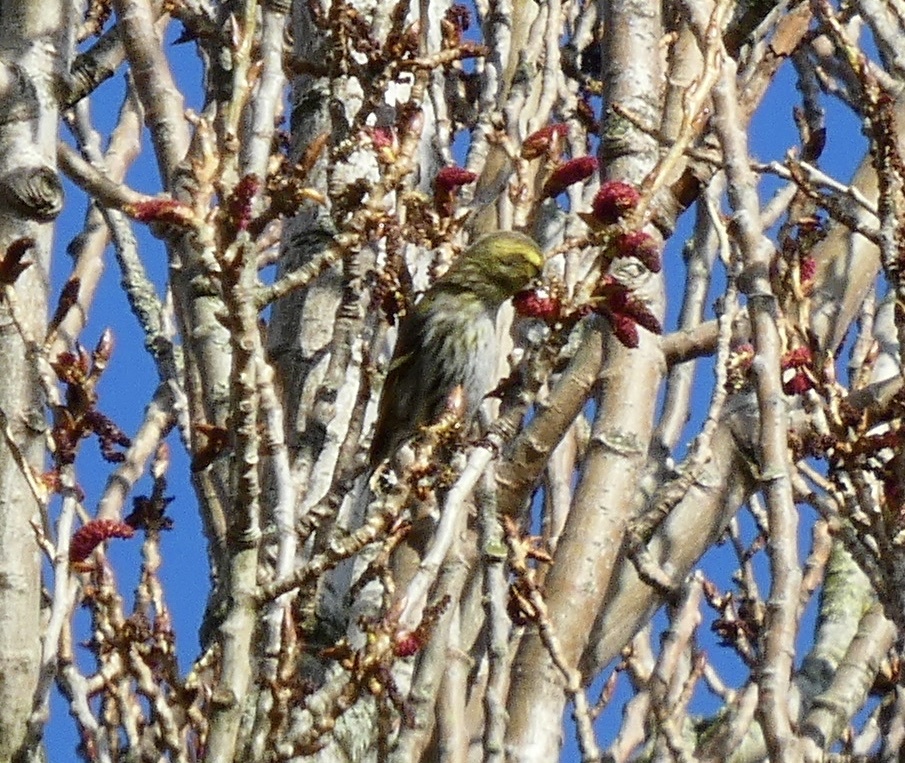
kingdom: Animalia
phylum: Chordata
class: Aves
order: Passeriformes
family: Fringillidae
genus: Spinus
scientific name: Spinus spinus
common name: Eurasian siskin
